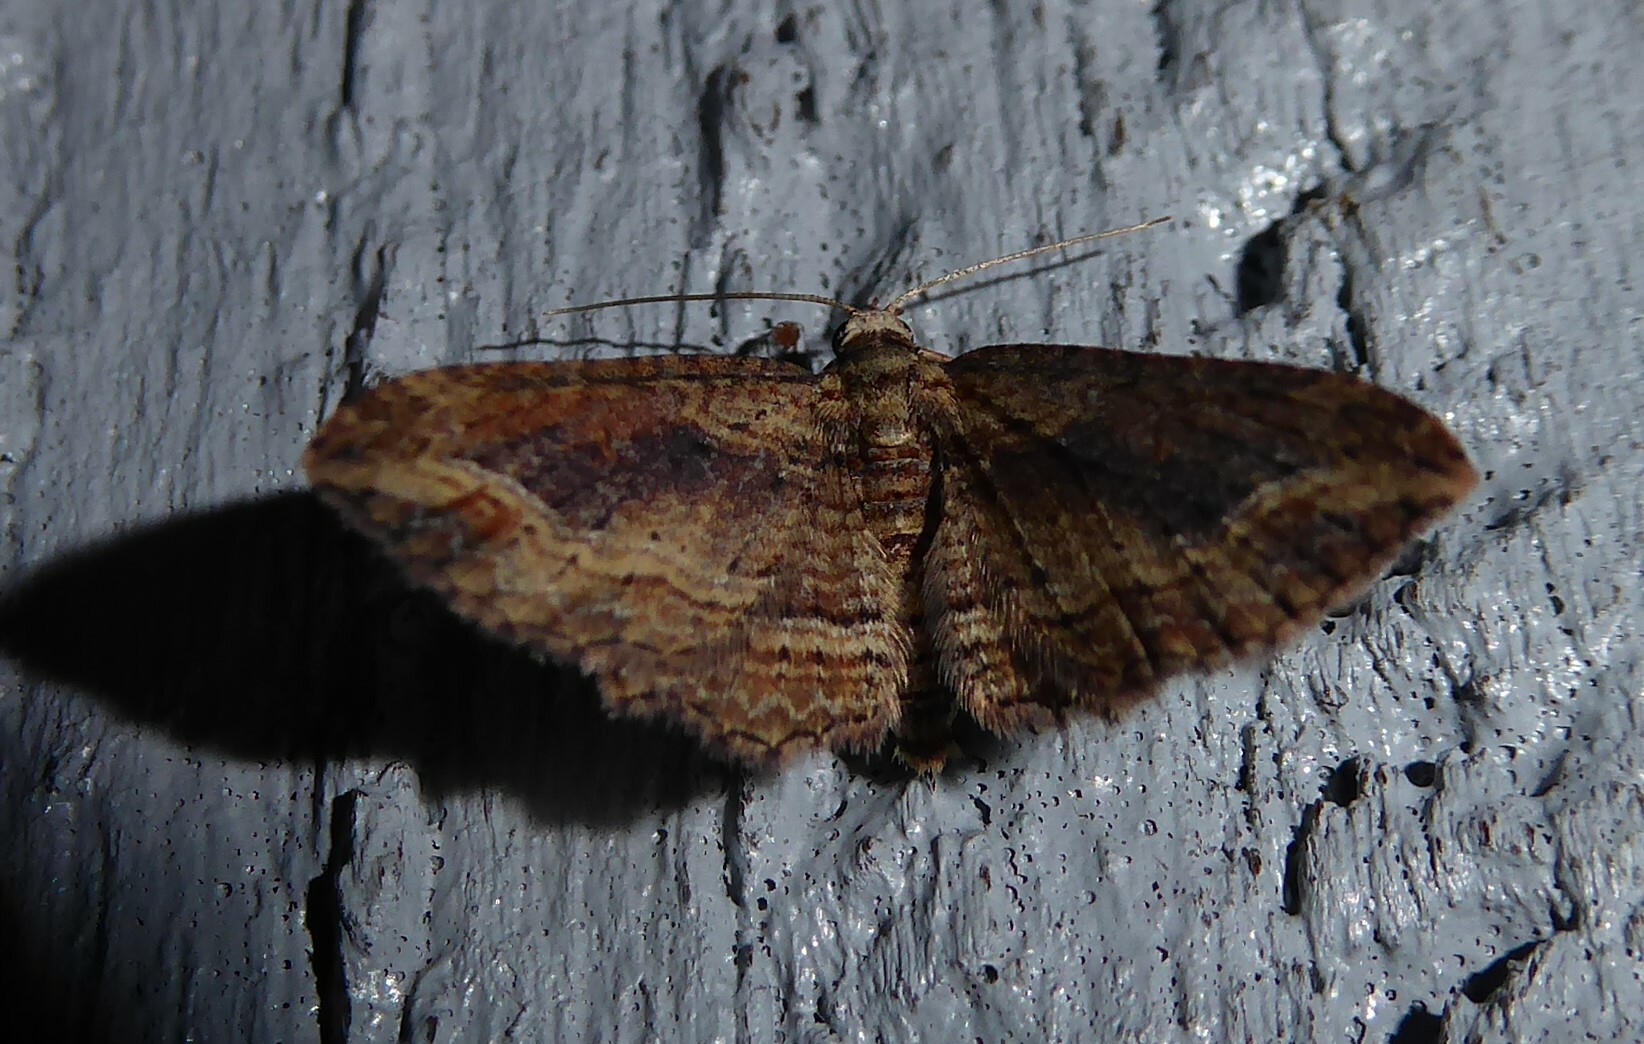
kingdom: Animalia
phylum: Arthropoda
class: Insecta
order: Lepidoptera
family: Geometridae
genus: Chloroclystis
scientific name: Chloroclystis filata
